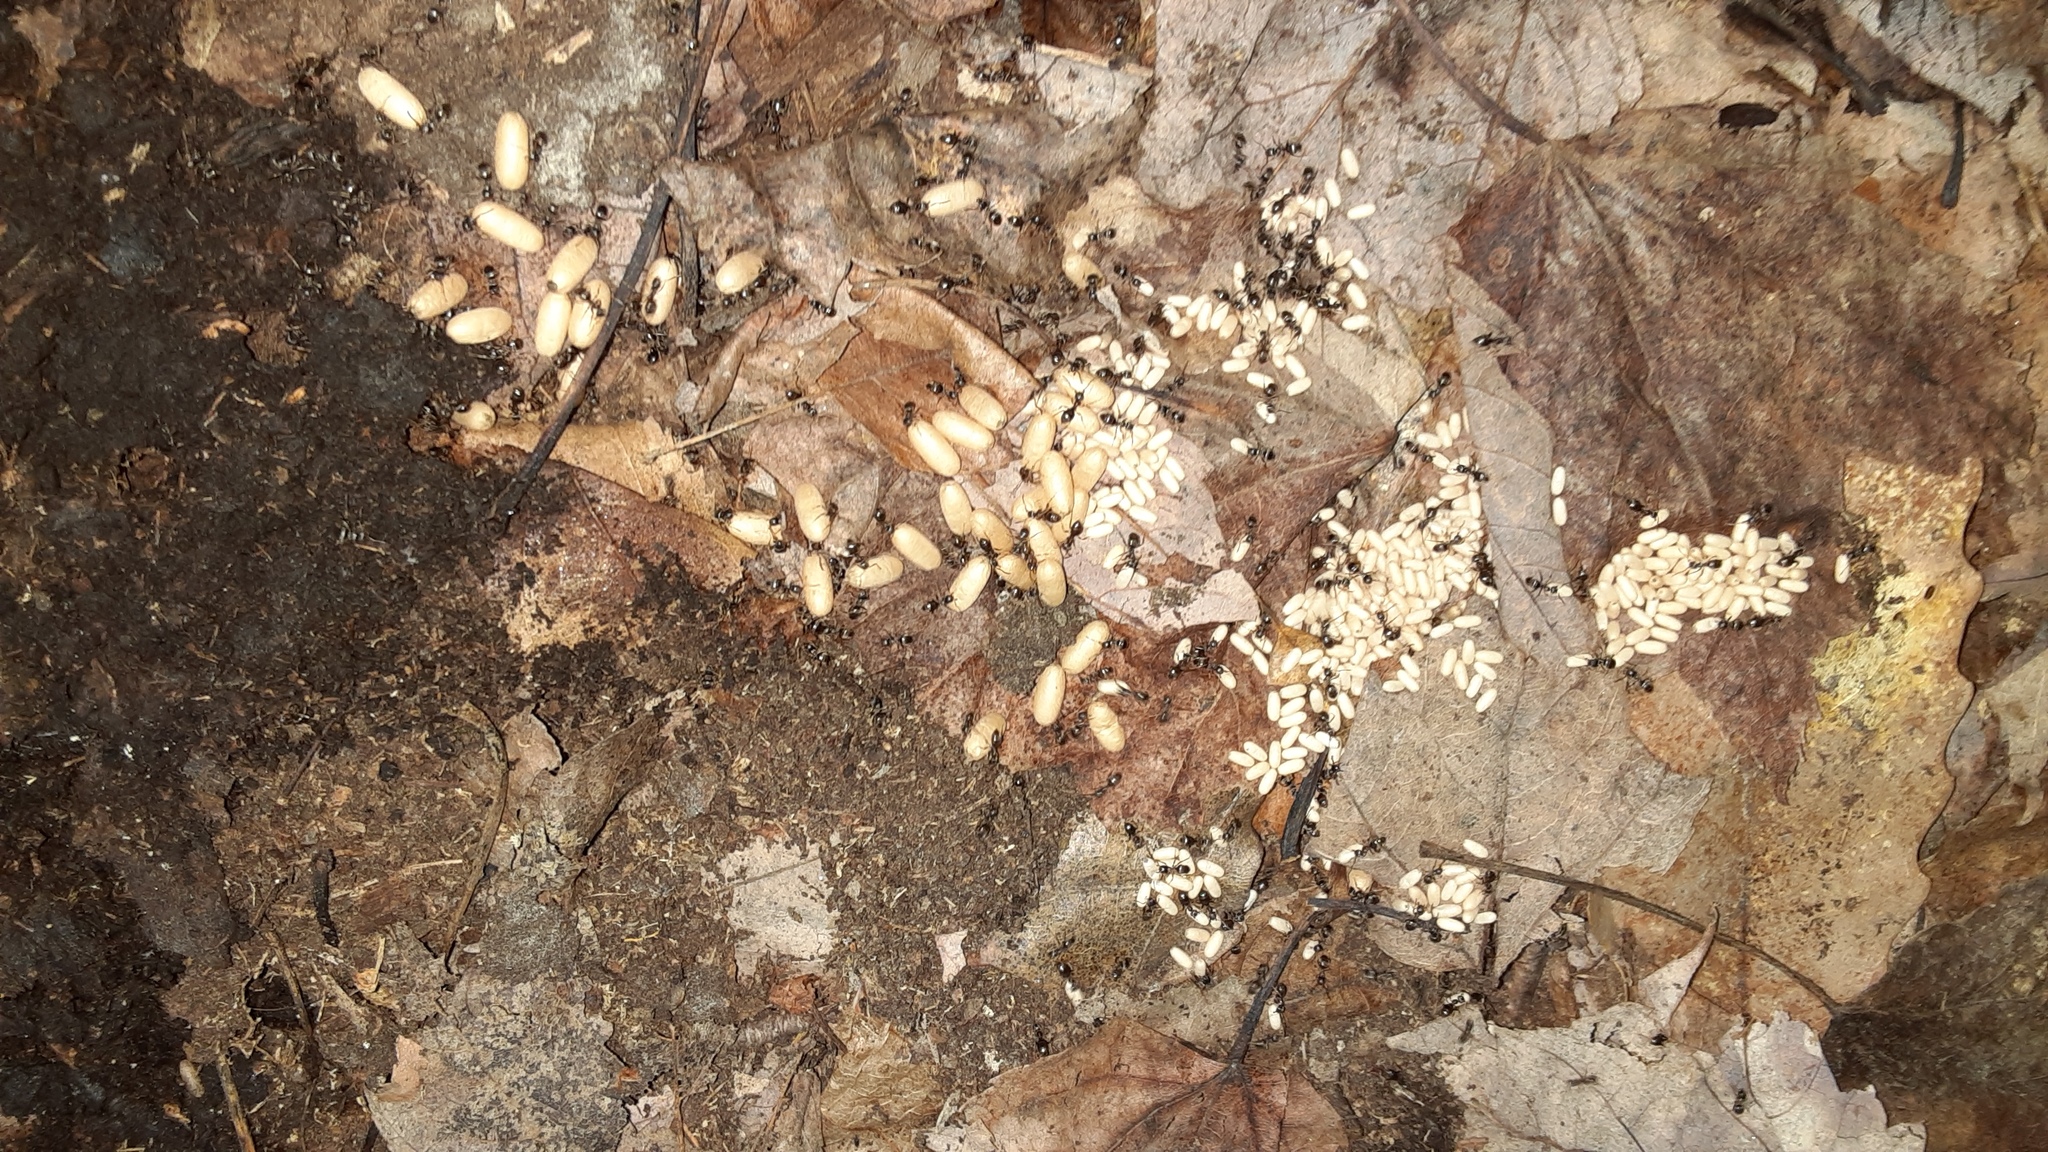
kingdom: Animalia
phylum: Arthropoda
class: Insecta
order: Hymenoptera
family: Formicidae
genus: Lasius
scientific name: Lasius americanus
